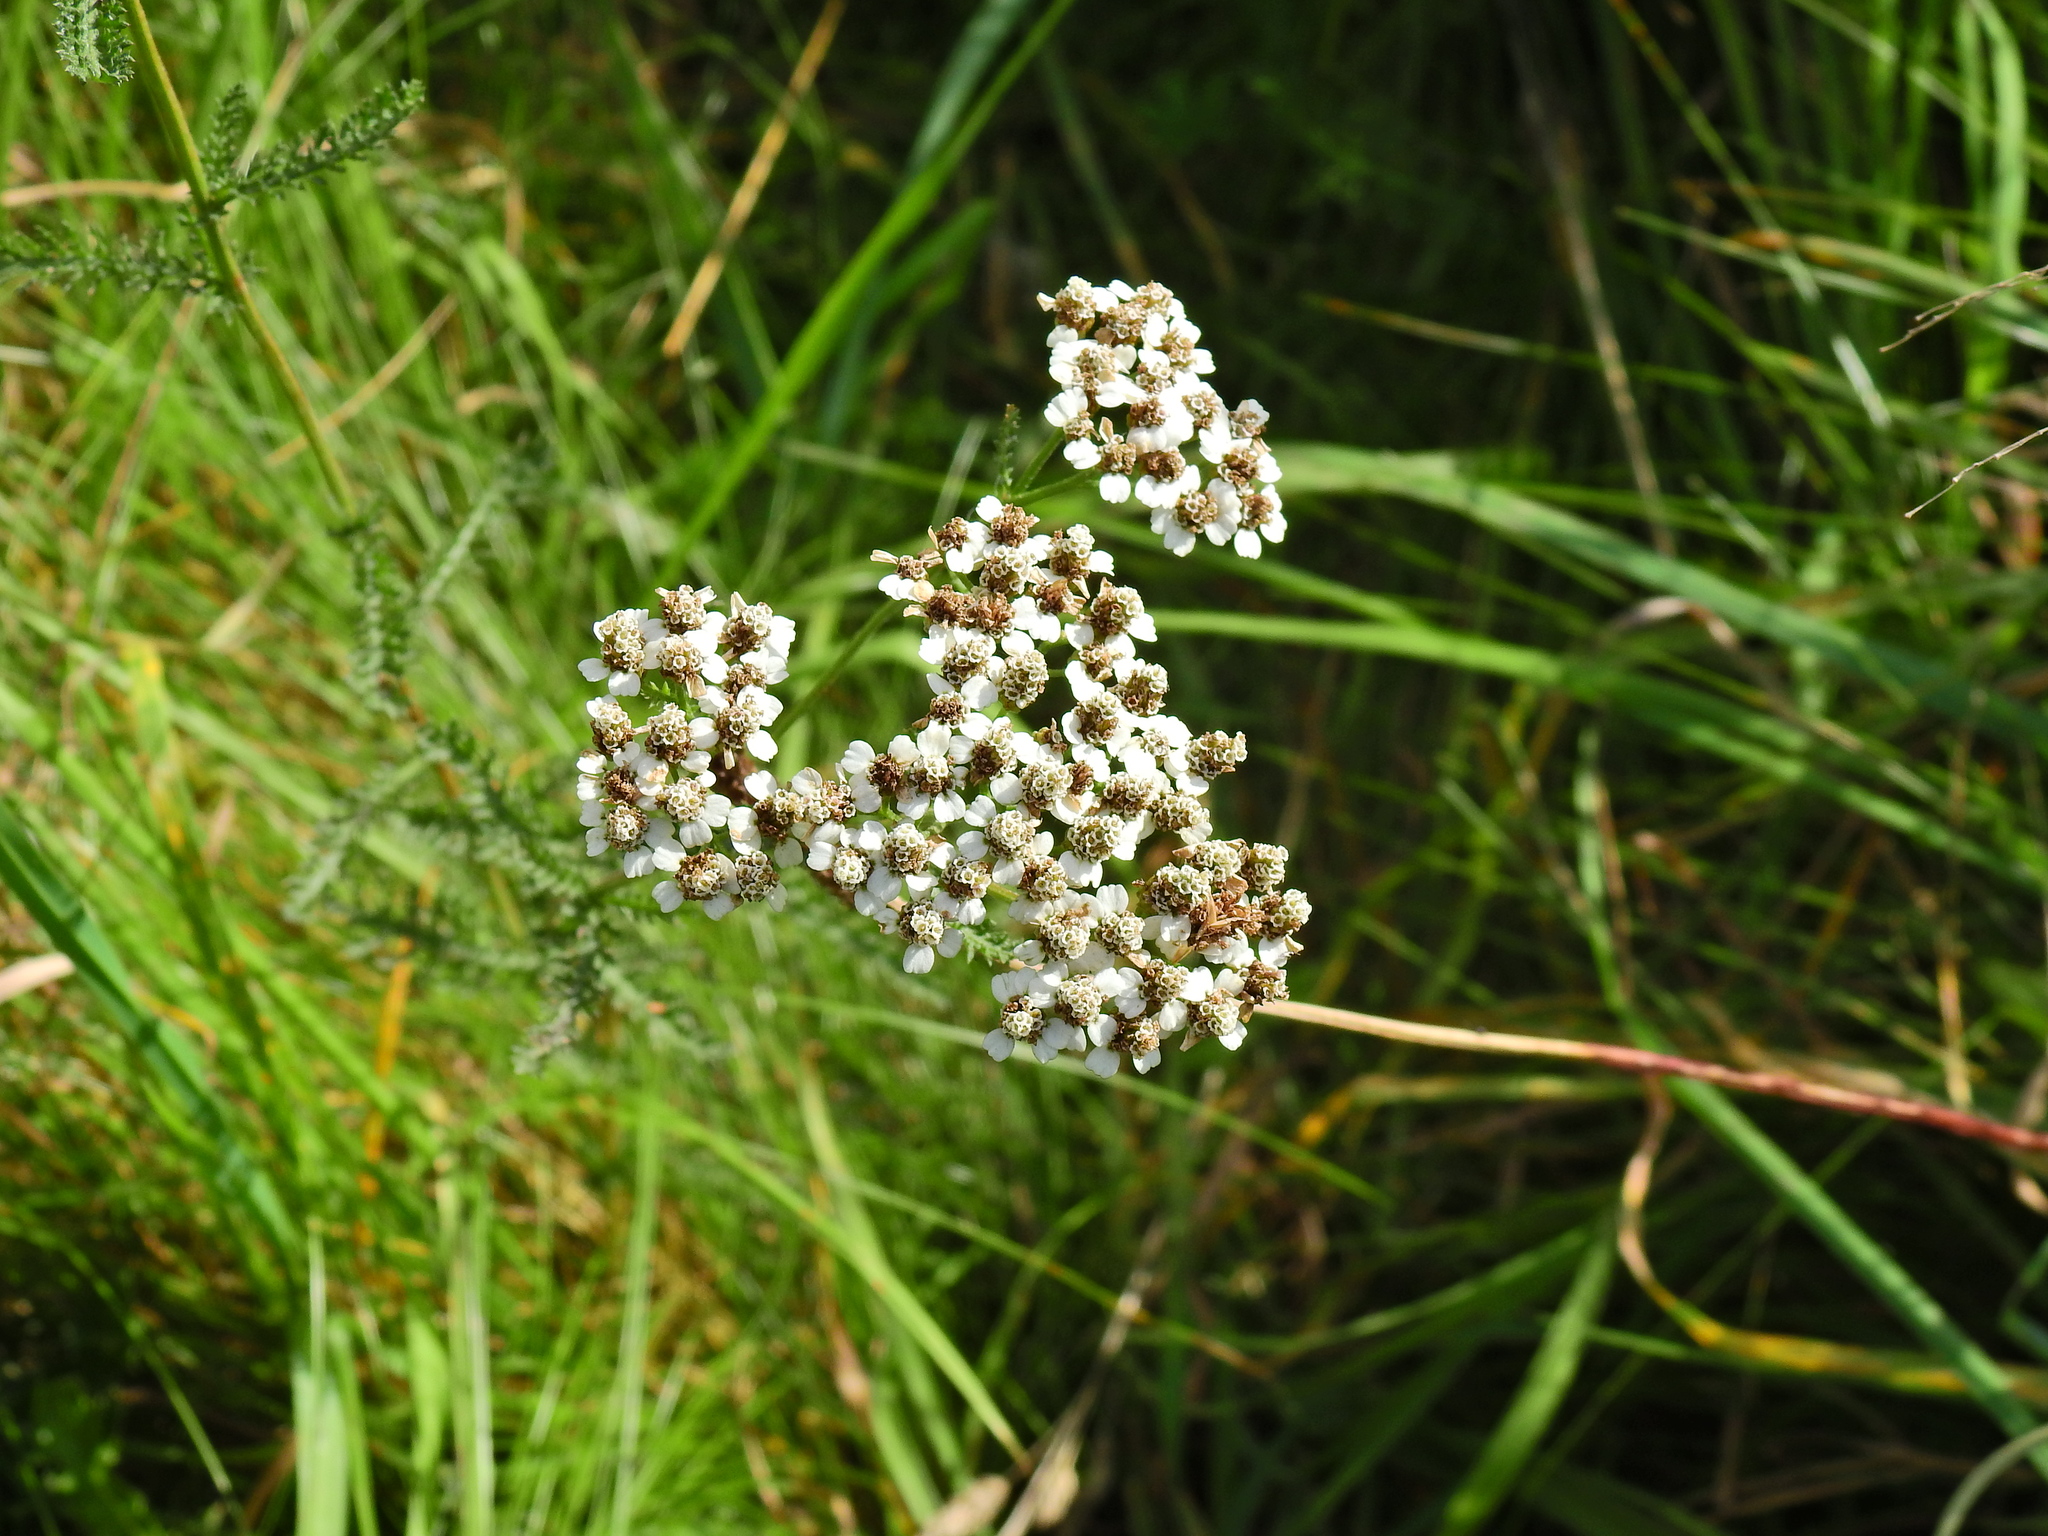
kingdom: Plantae
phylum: Tracheophyta
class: Magnoliopsida
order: Asterales
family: Asteraceae
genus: Achillea
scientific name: Achillea millefolium
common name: Yarrow
